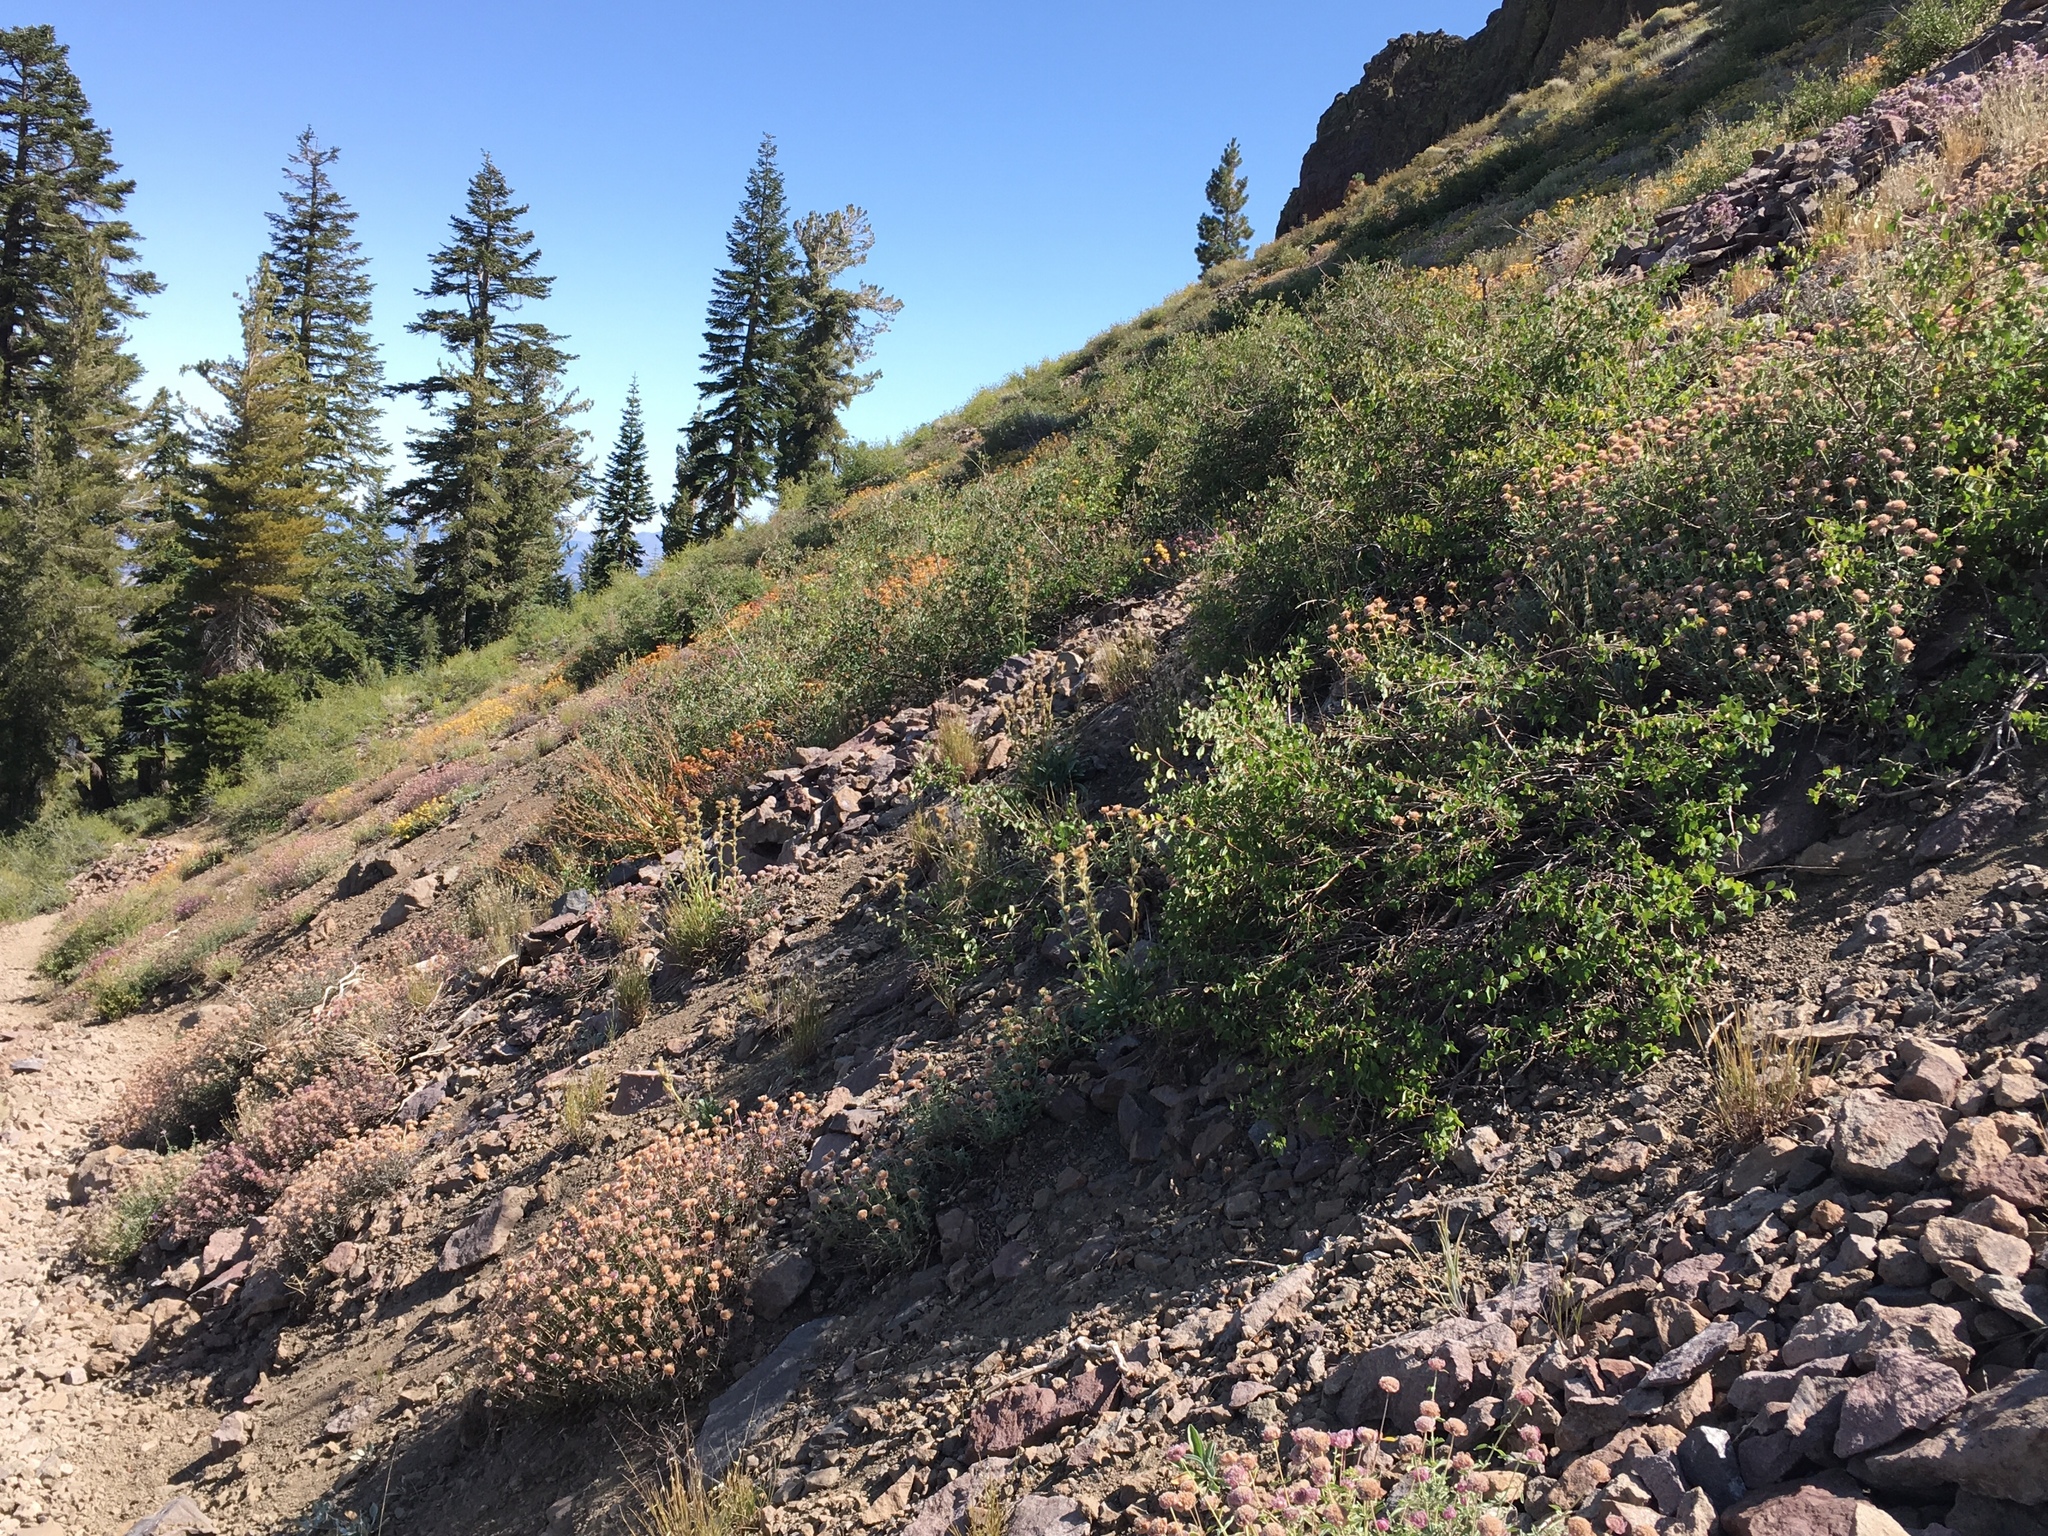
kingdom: Plantae
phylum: Tracheophyta
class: Magnoliopsida
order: Boraginales
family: Boraginaceae
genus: Oreocarya
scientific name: Oreocarya crymophila
